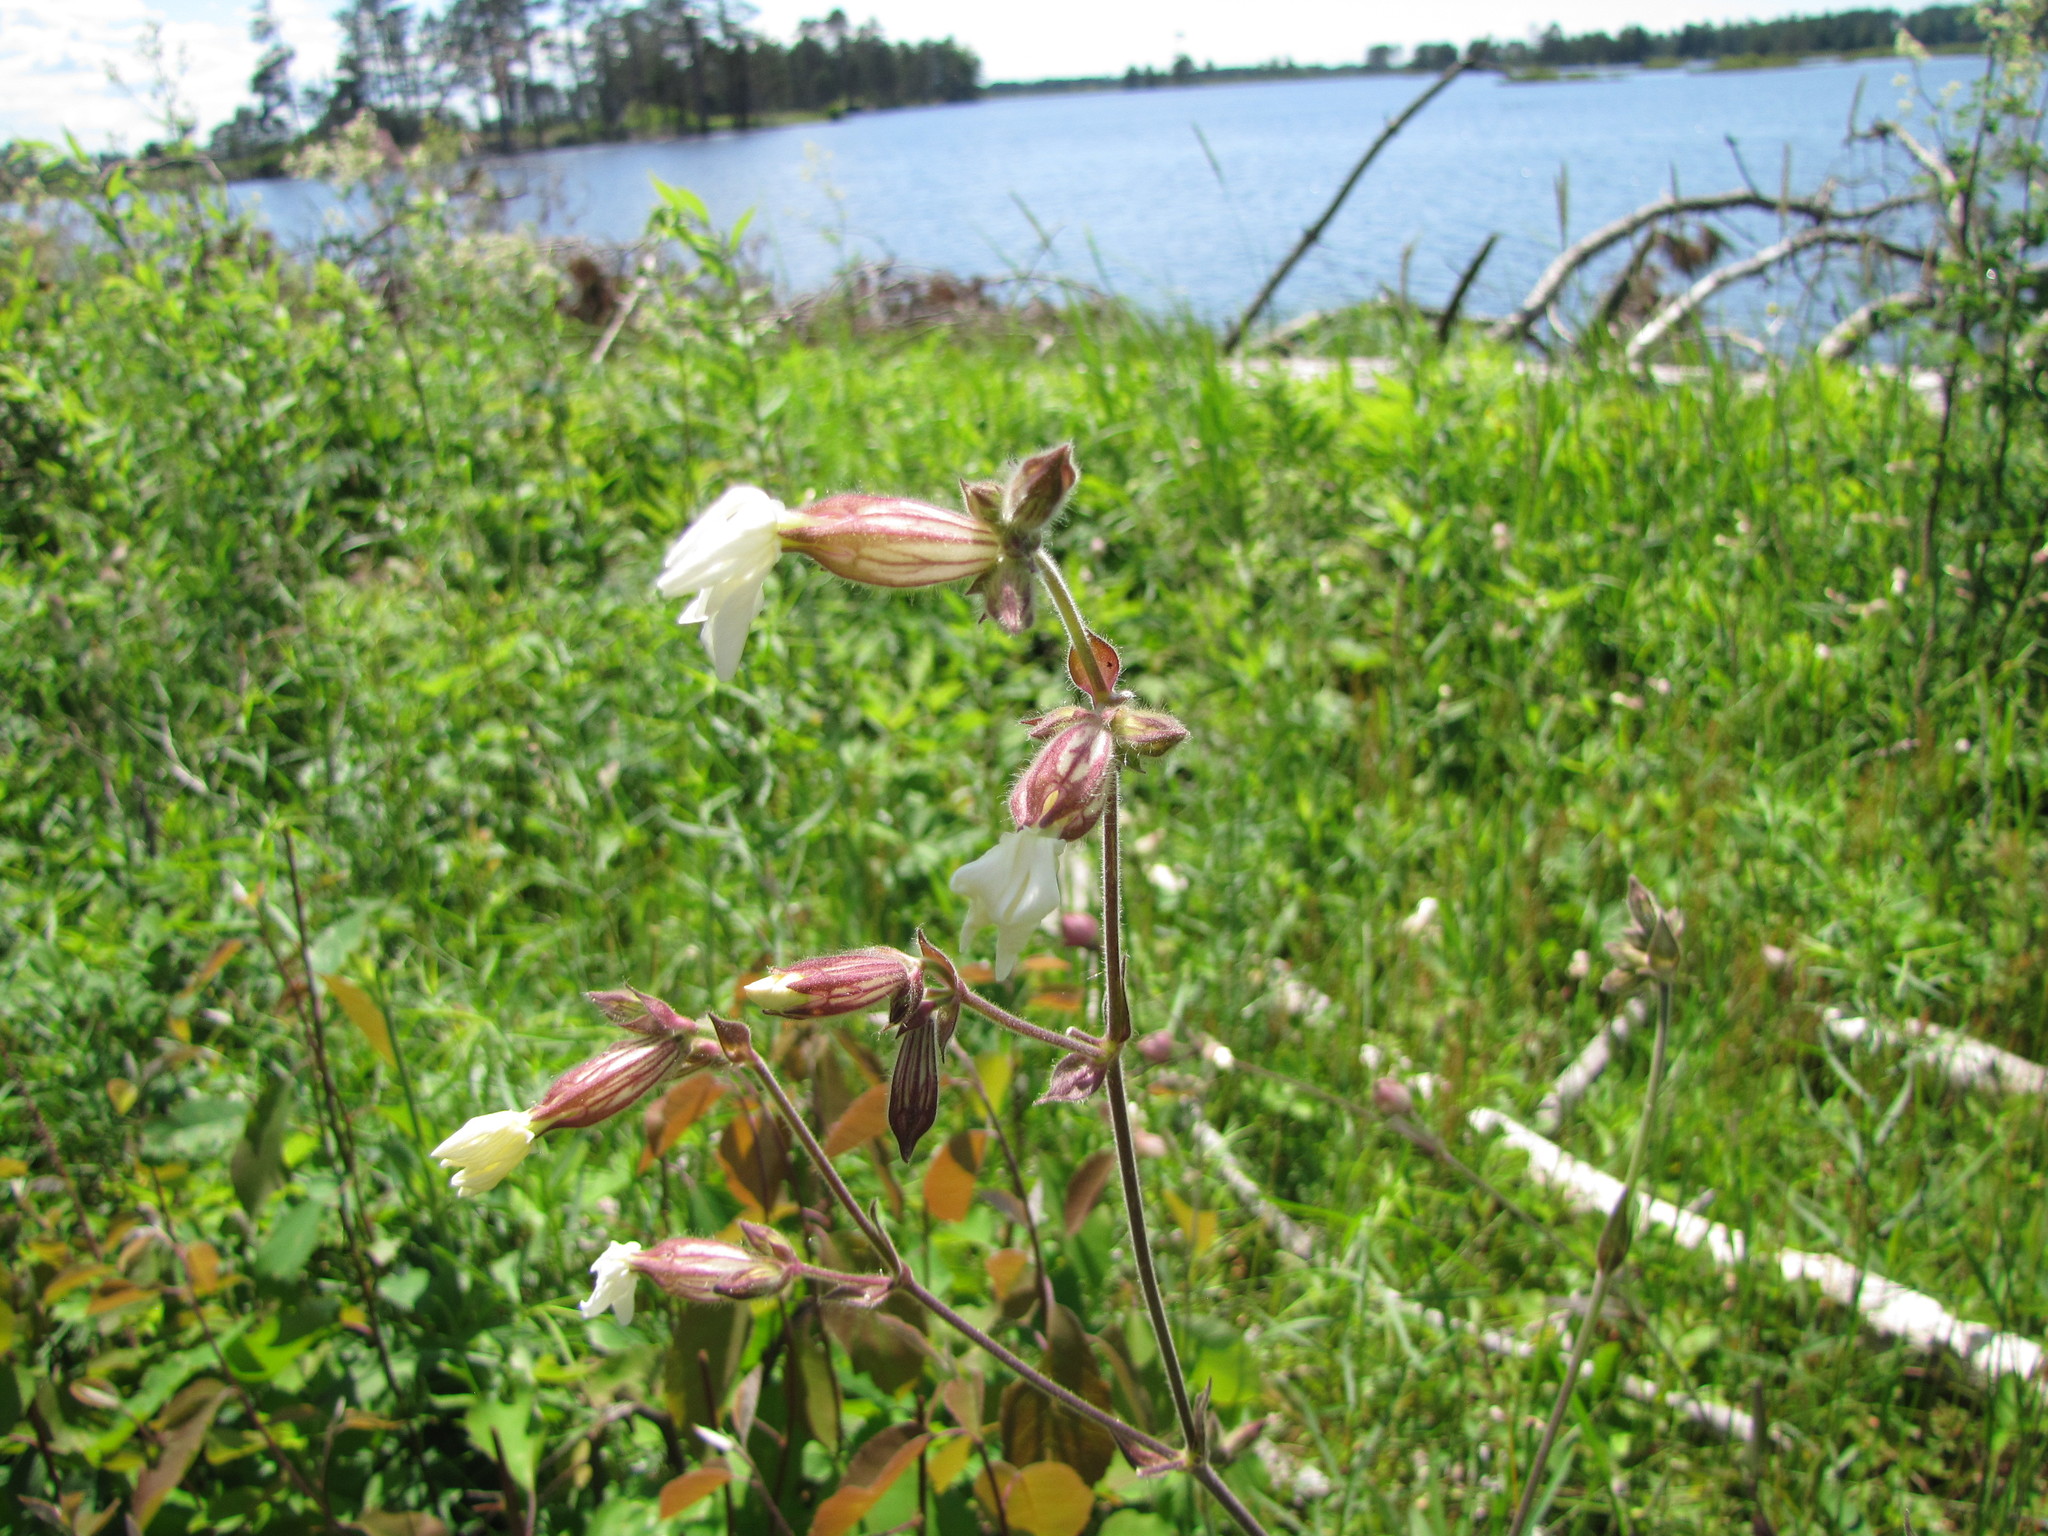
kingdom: Plantae
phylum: Tracheophyta
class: Magnoliopsida
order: Caryophyllales
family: Caryophyllaceae
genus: Silene
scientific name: Silene latifolia
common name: White campion
